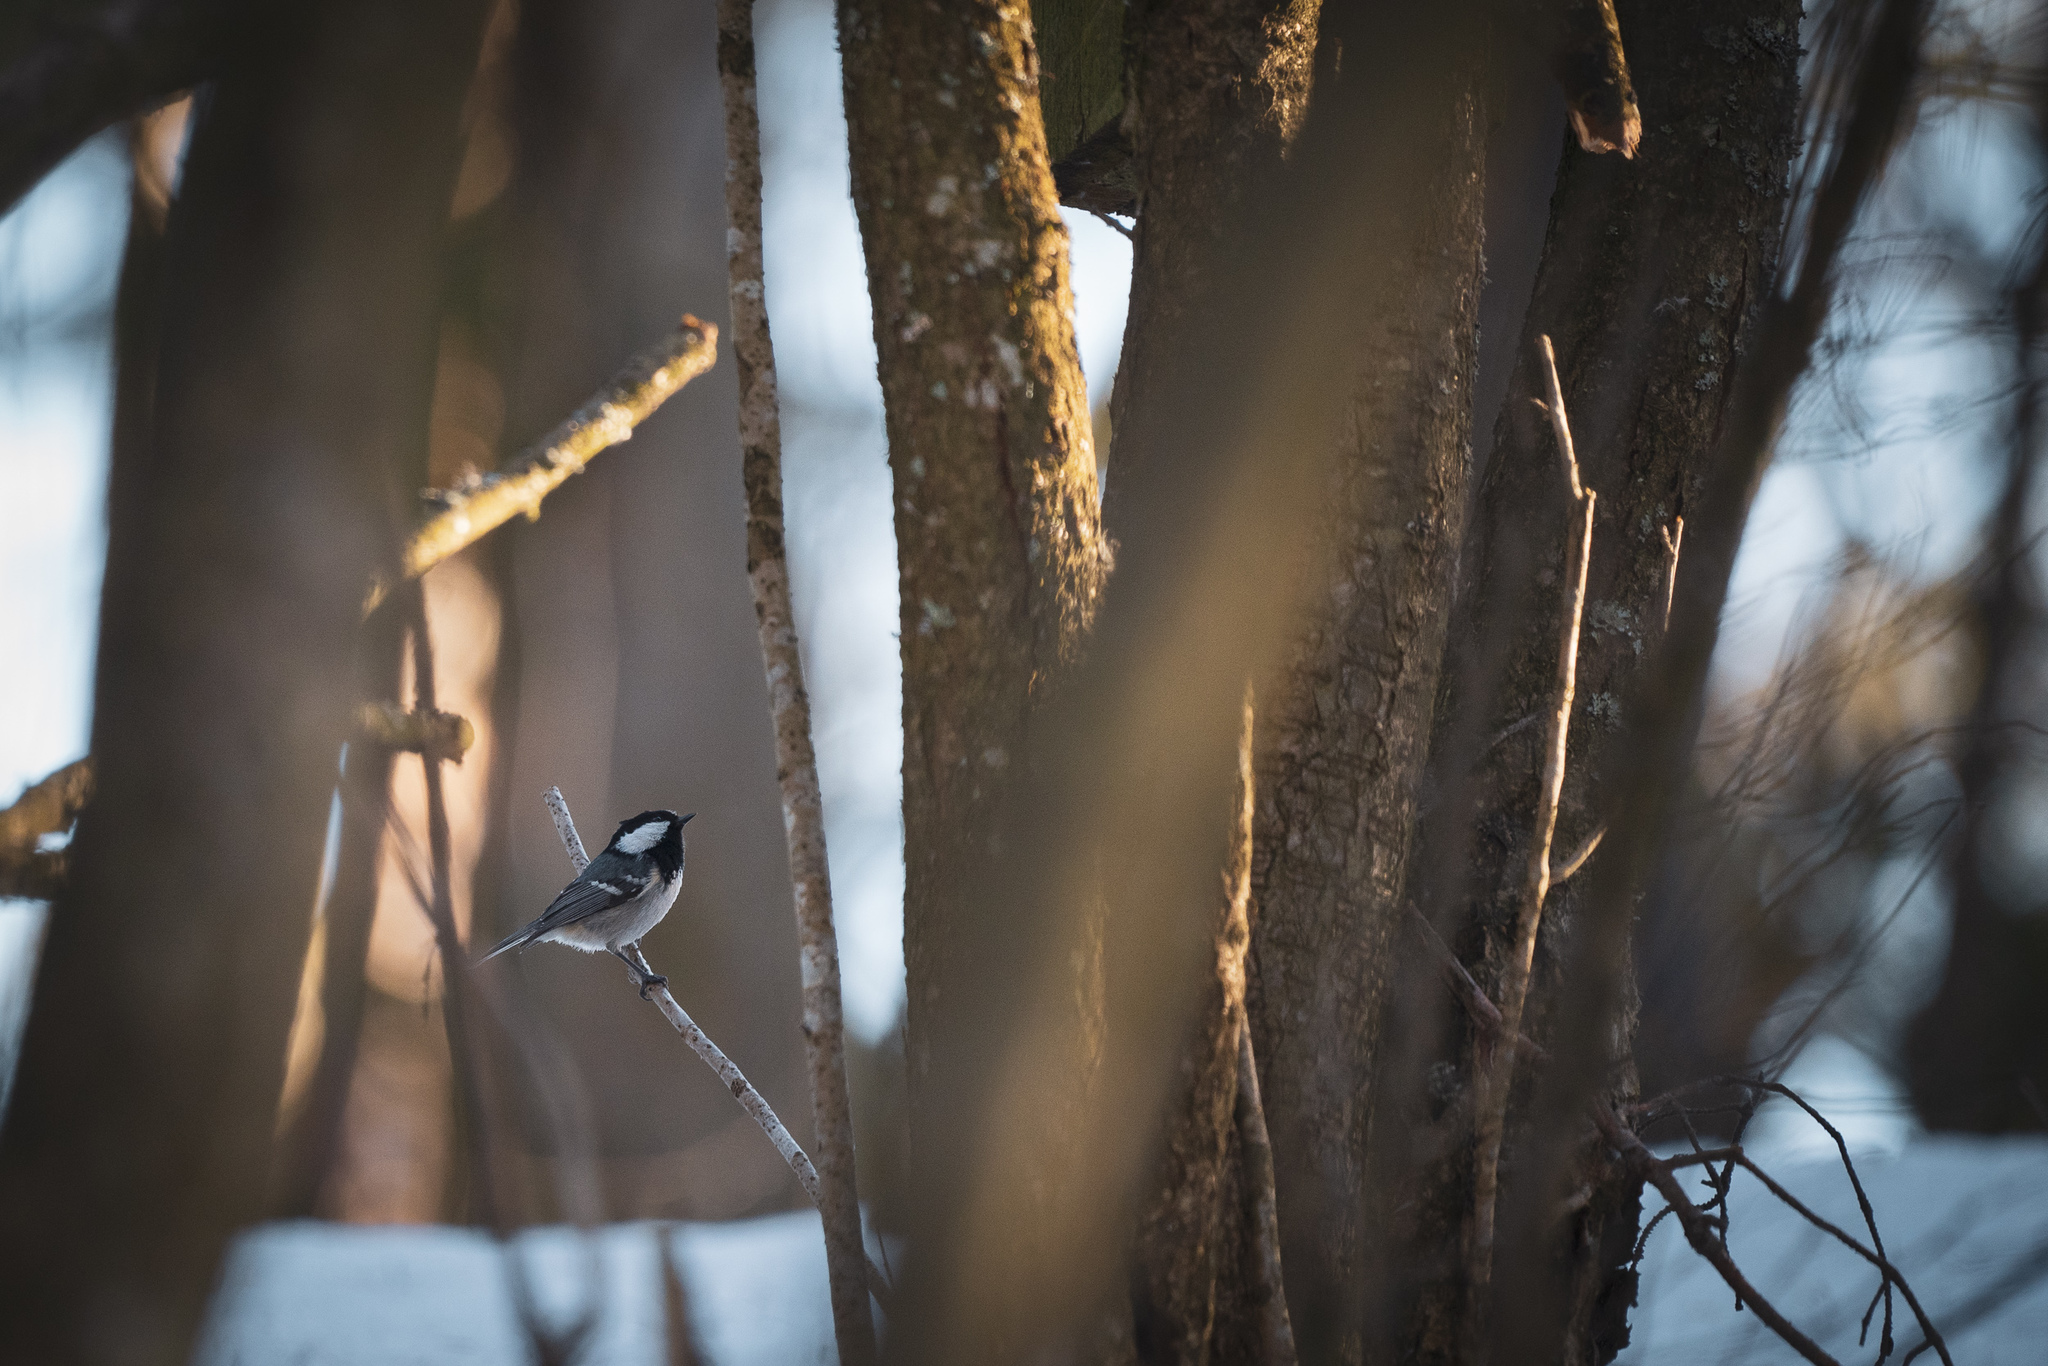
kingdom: Animalia
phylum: Chordata
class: Aves
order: Passeriformes
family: Paridae
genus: Periparus
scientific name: Periparus ater
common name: Coal tit
